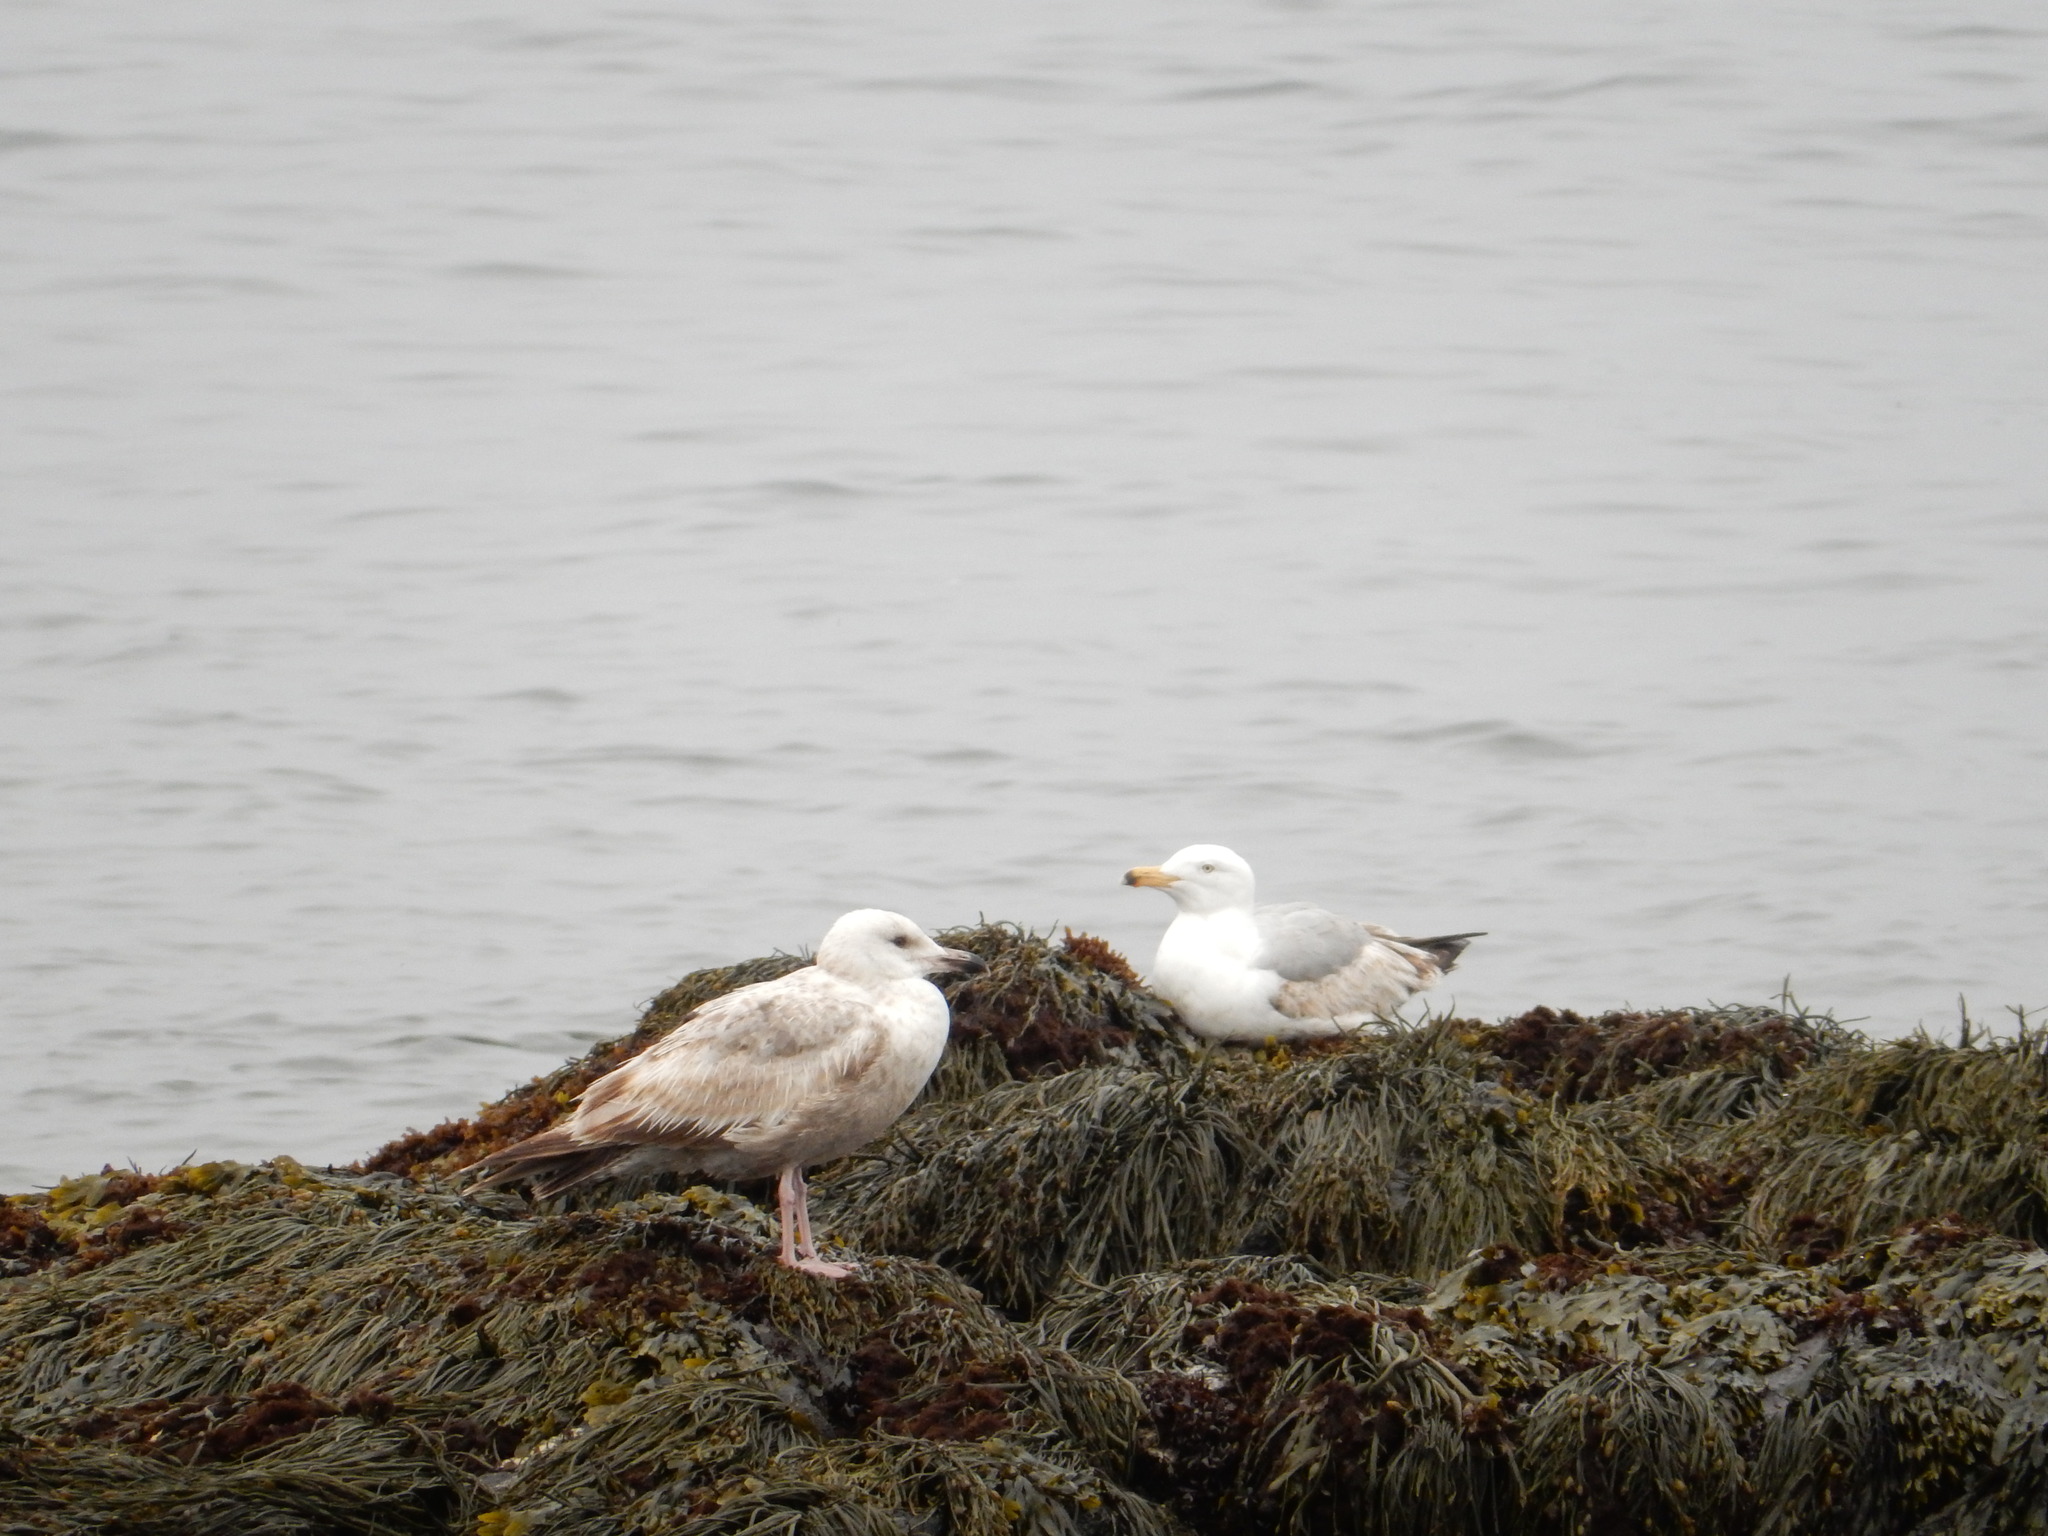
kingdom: Animalia
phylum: Chordata
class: Aves
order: Charadriiformes
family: Laridae
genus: Larus
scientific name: Larus argentatus
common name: Herring gull
